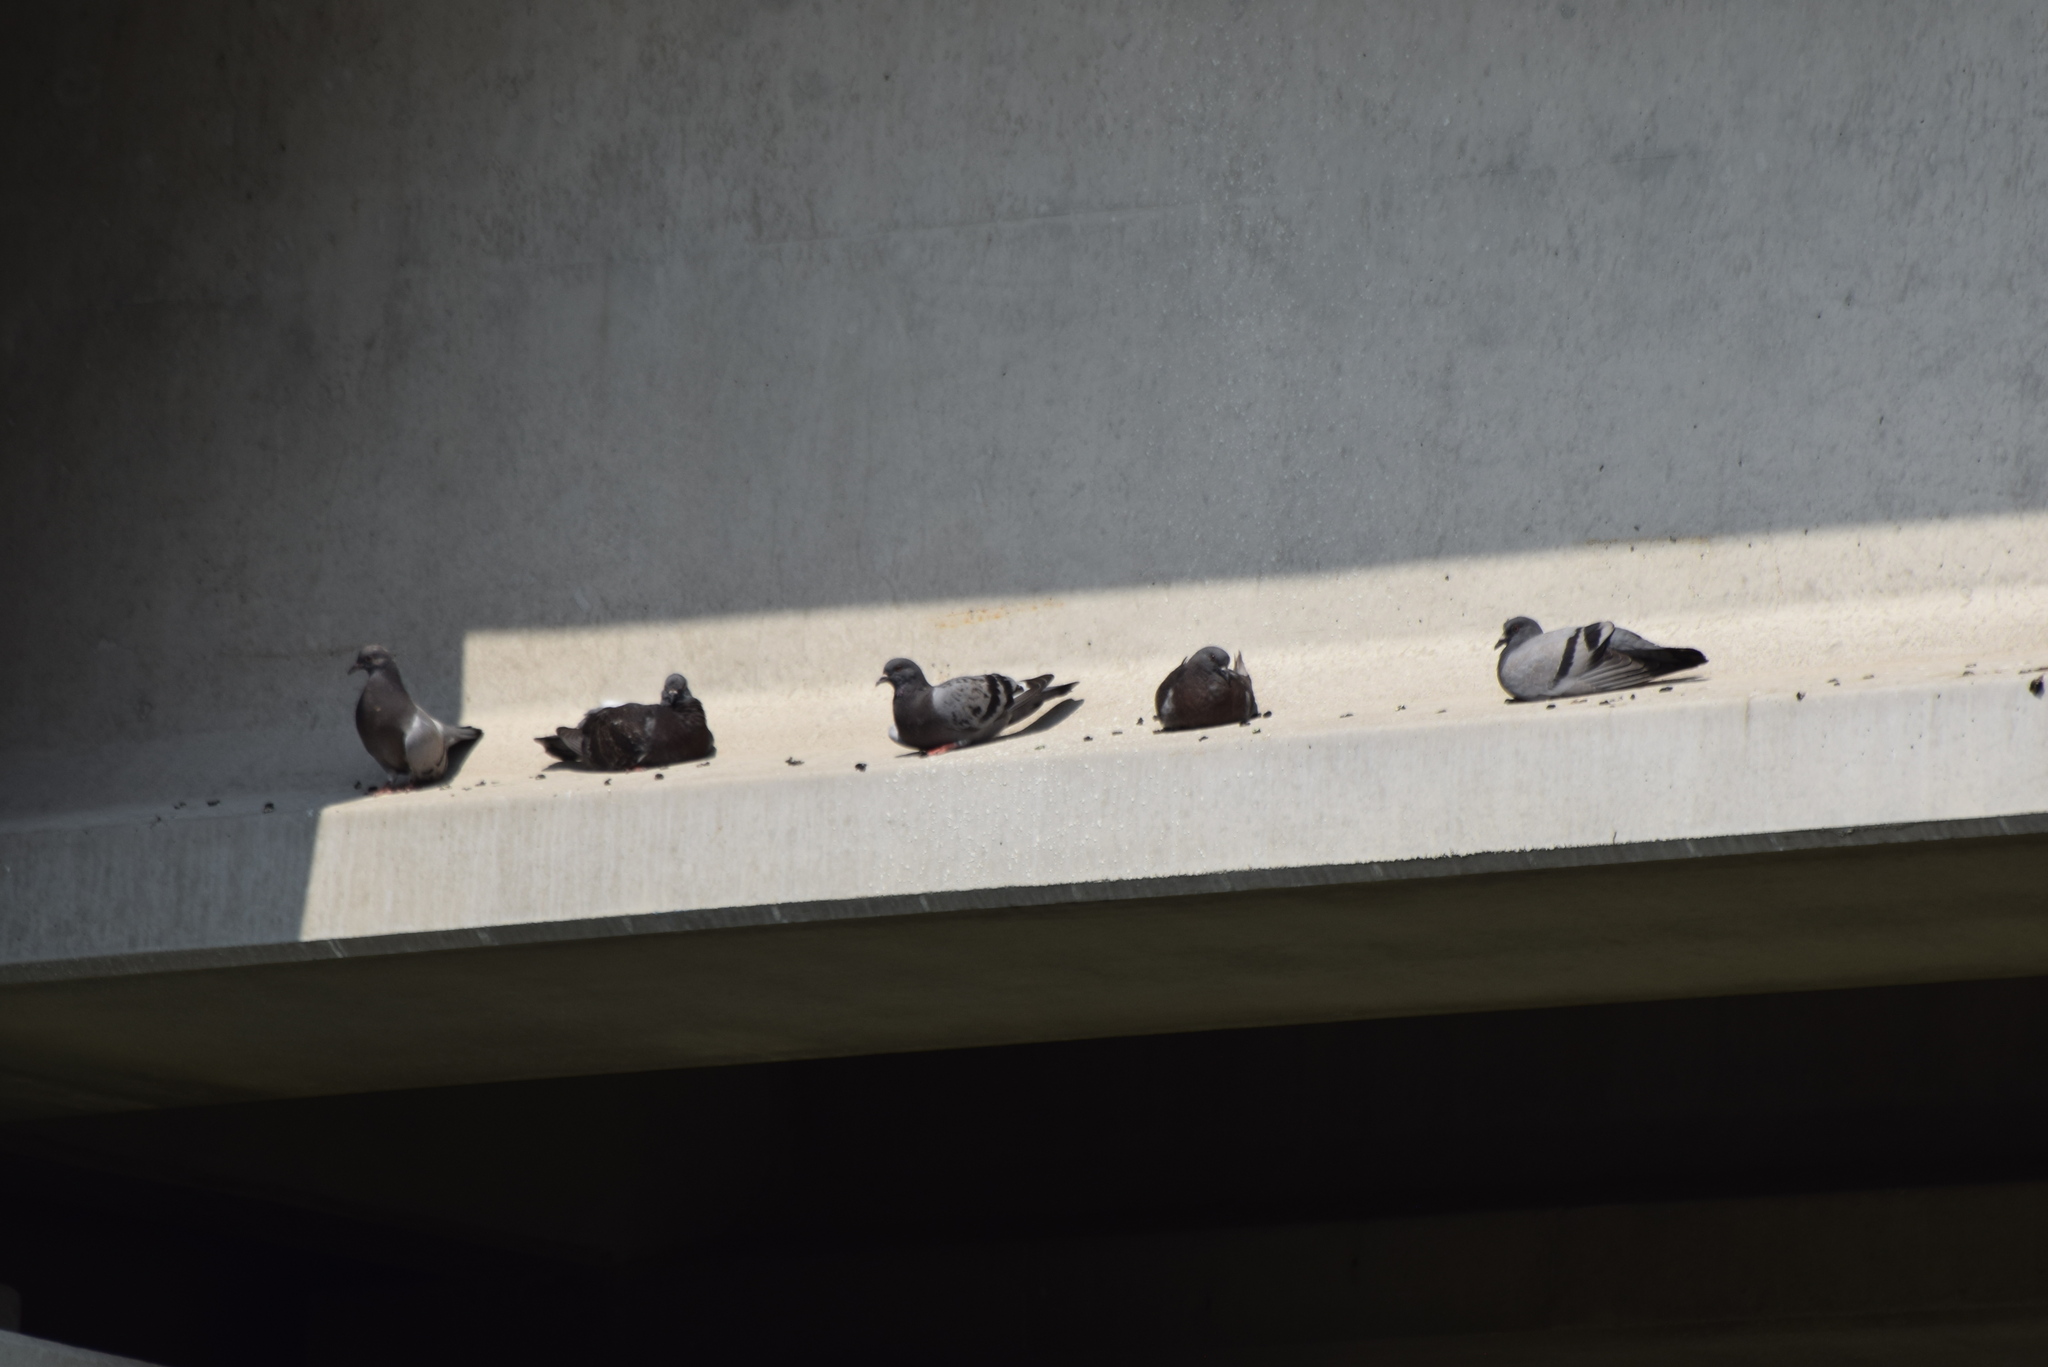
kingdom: Animalia
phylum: Chordata
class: Aves
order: Columbiformes
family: Columbidae
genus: Columba
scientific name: Columba livia
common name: Rock pigeon
